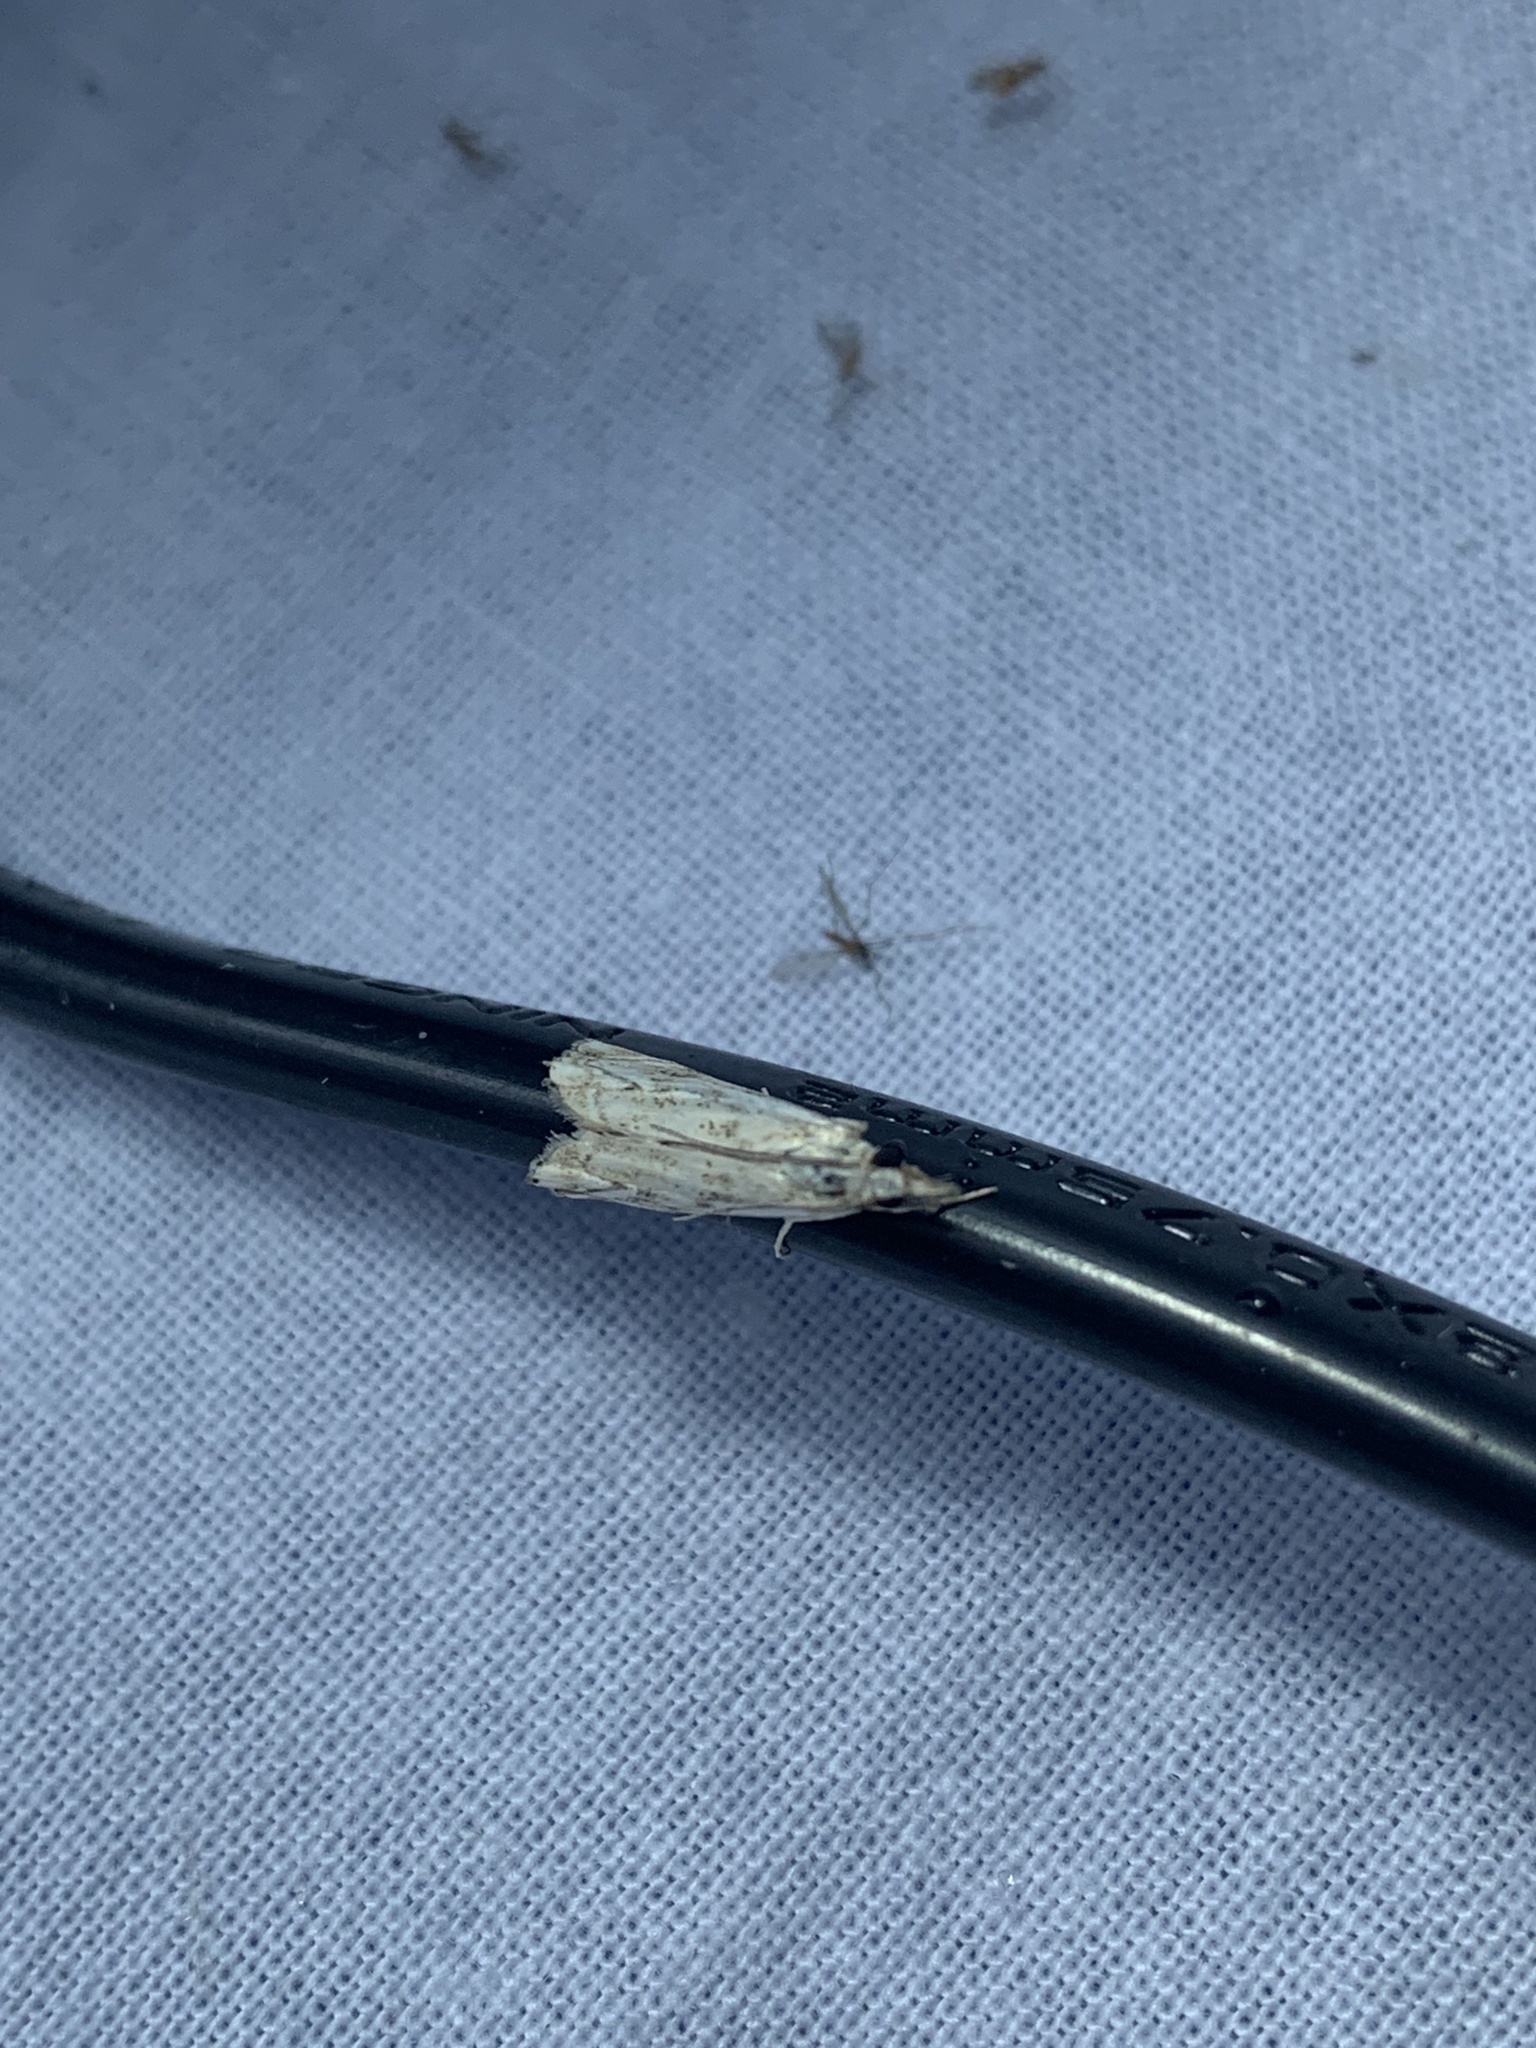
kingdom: Animalia
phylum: Arthropoda
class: Insecta
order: Lepidoptera
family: Crambidae
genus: Catoptria
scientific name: Catoptria falsella
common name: Chequered grass-veneer
